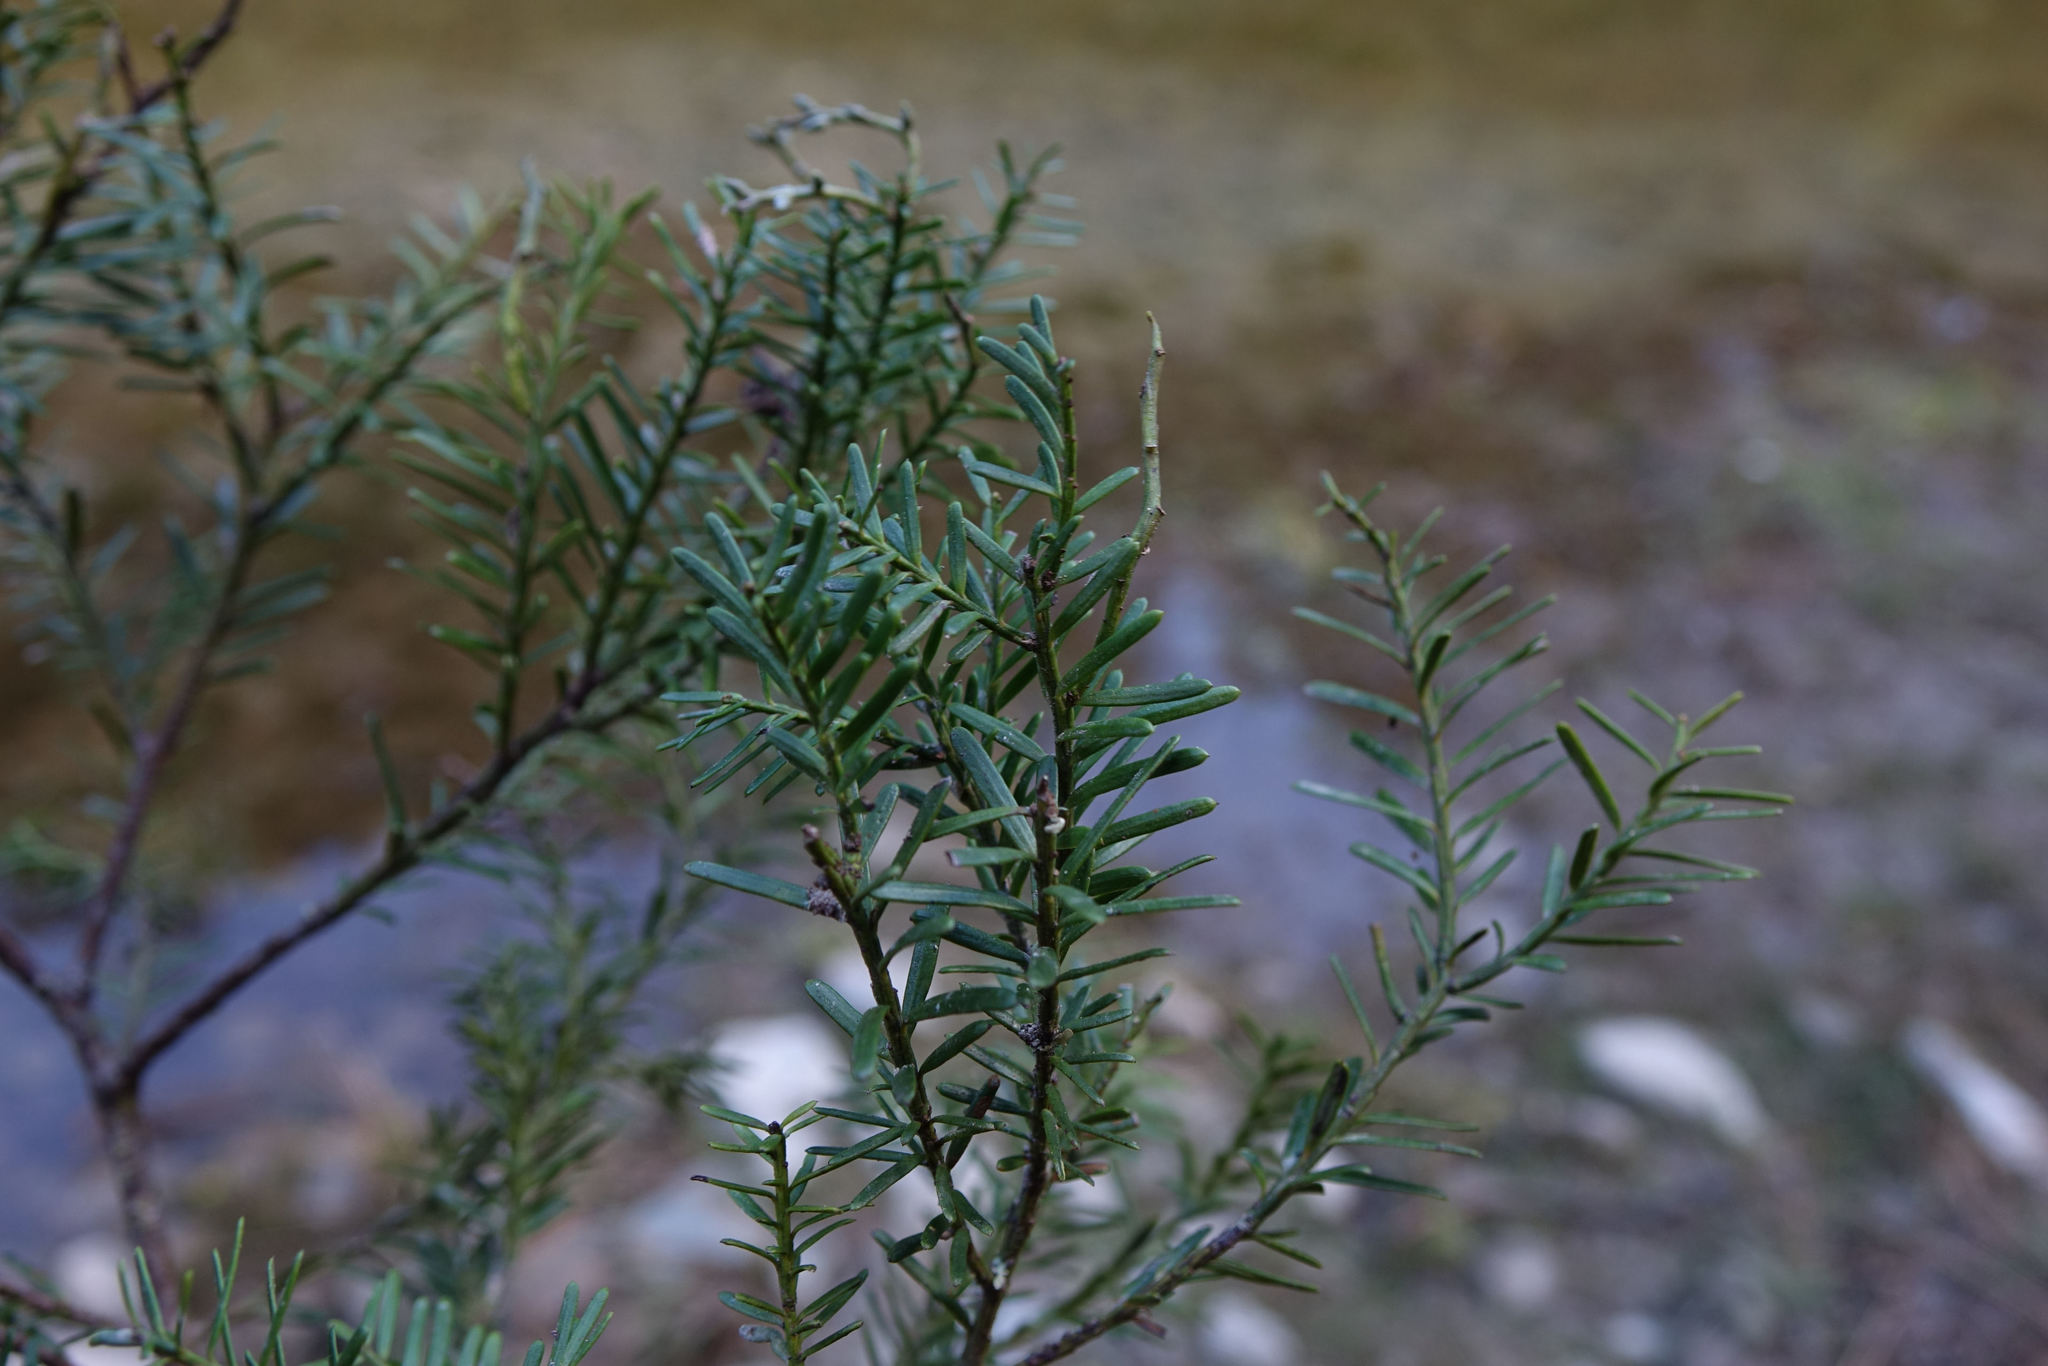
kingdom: Plantae
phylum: Tracheophyta
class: Pinopsida
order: Pinales
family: Podocarpaceae
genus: Prumnopitys
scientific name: Prumnopitys taxifolia
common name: Matai
